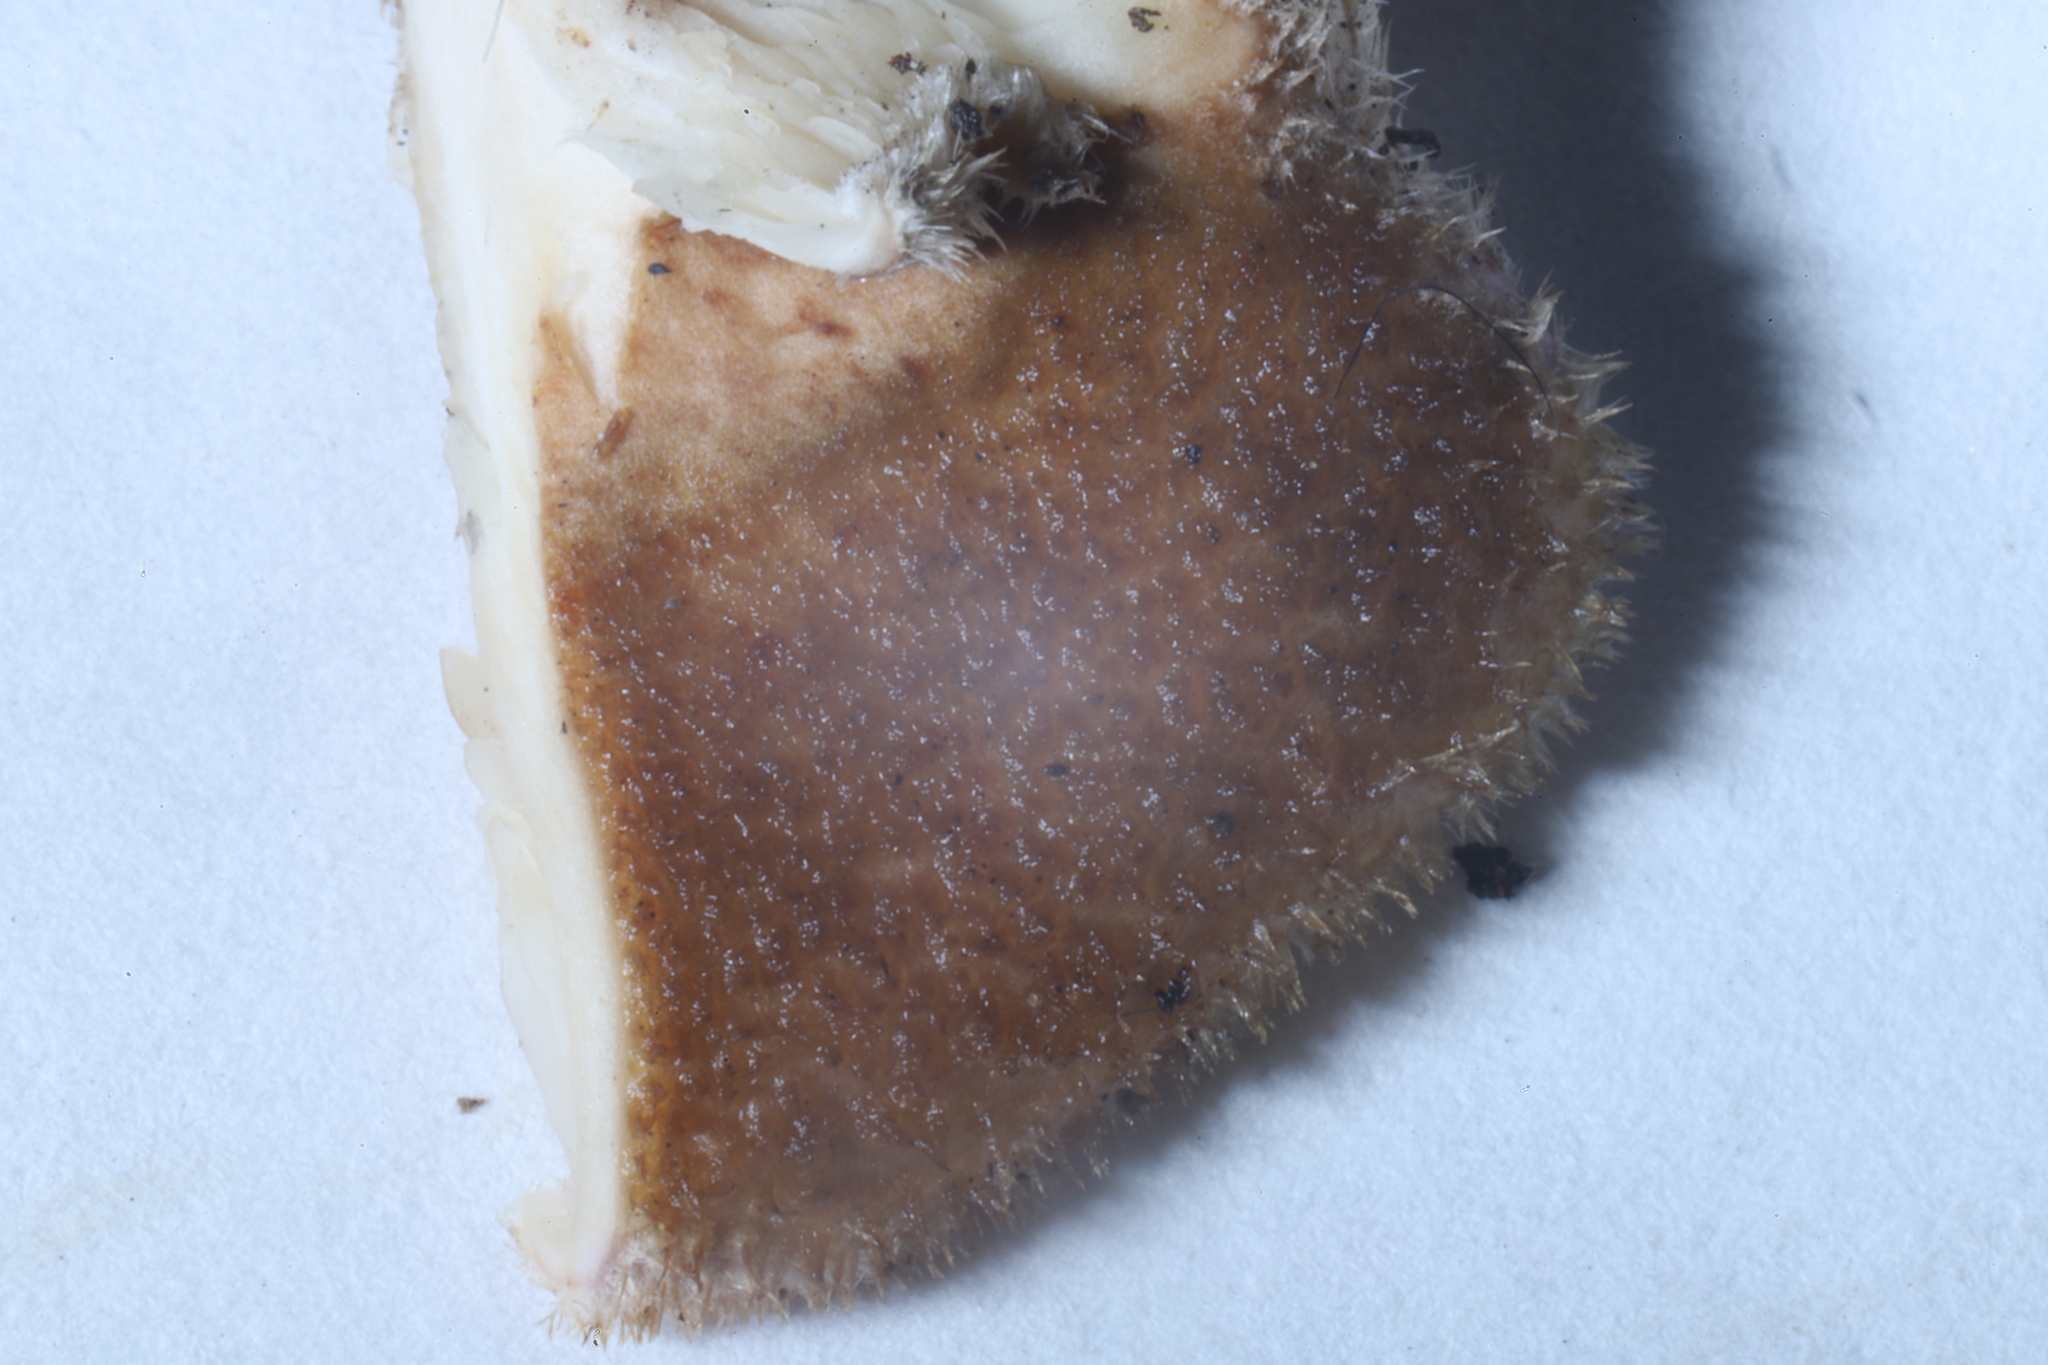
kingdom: Fungi
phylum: Basidiomycota
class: Agaricomycetes
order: Polyporales
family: Panaceae
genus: Panus
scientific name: Panus neostrigosus
